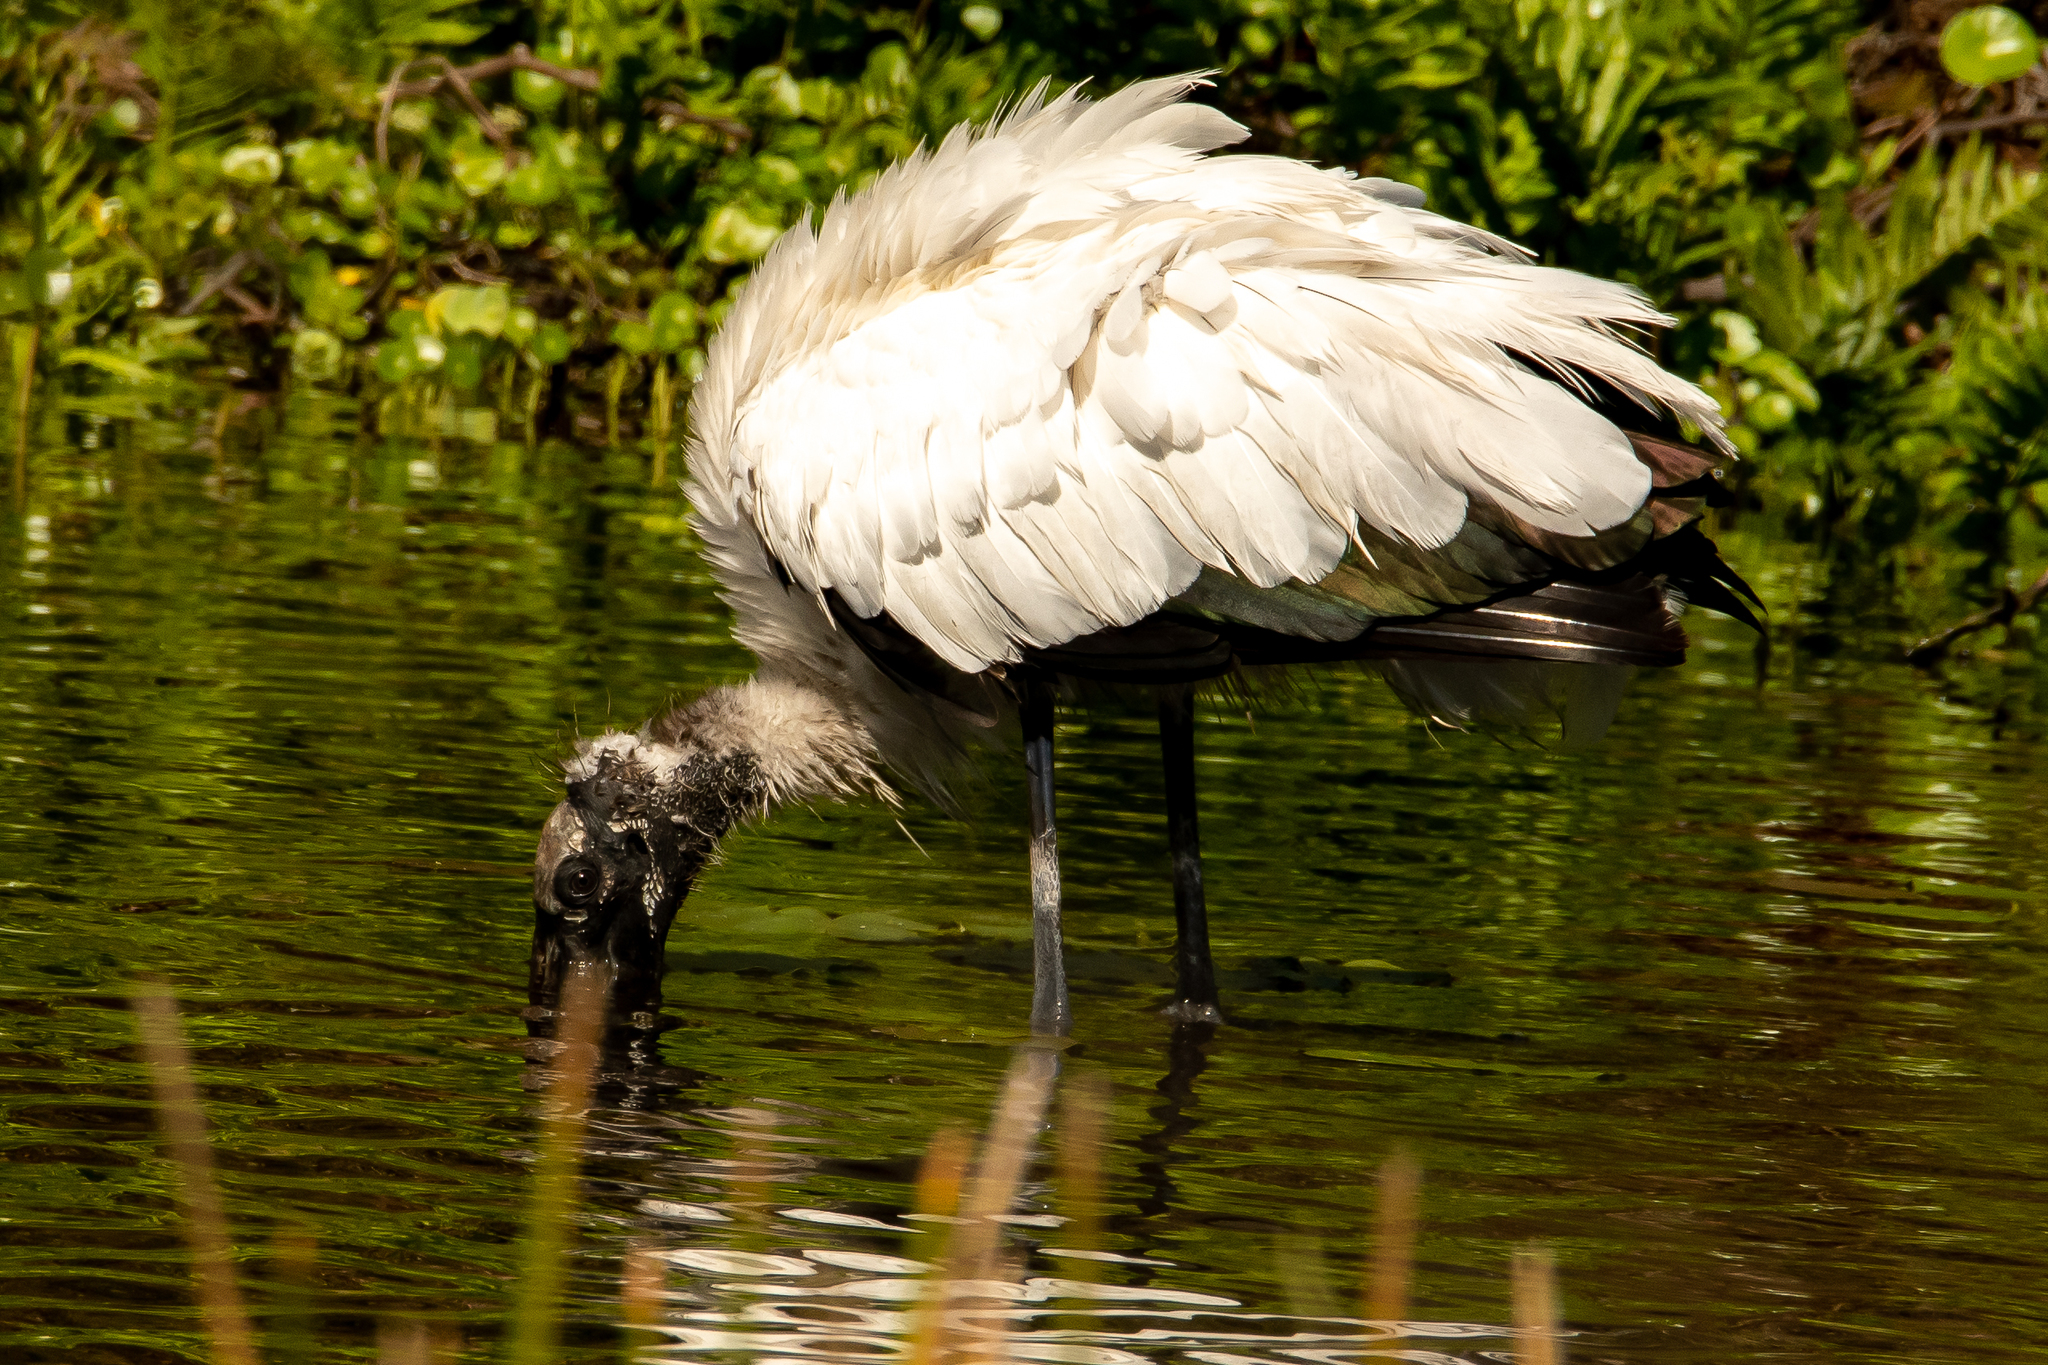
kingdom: Animalia
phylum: Chordata
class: Aves
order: Ciconiiformes
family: Ciconiidae
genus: Mycteria
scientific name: Mycteria americana
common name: Wood stork
